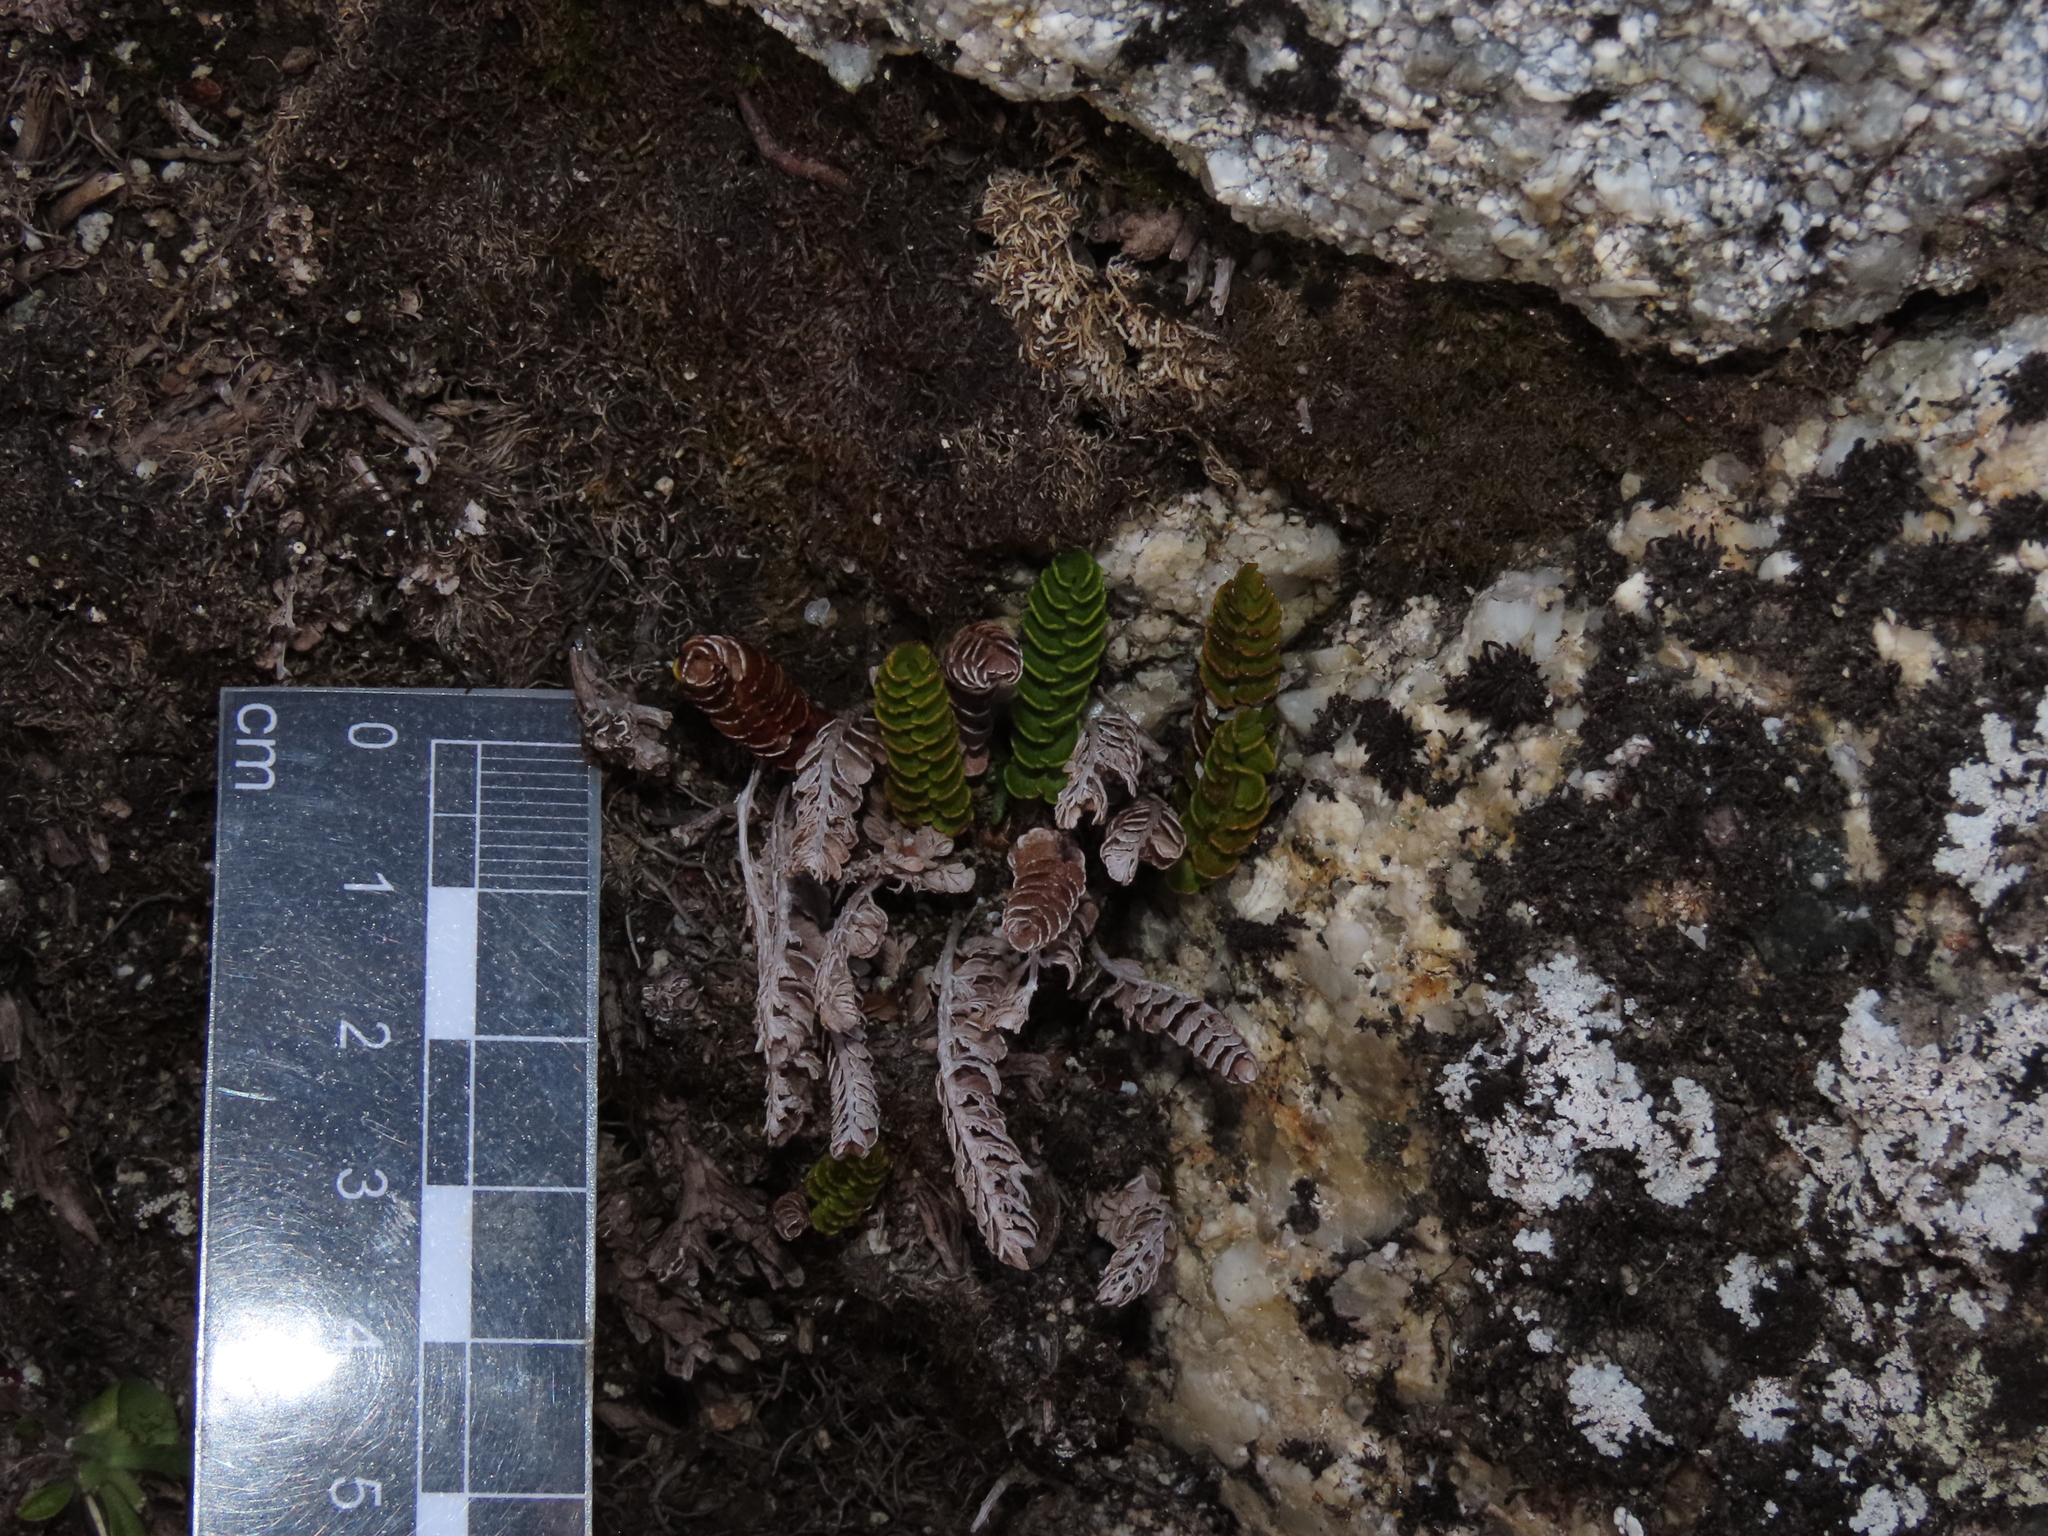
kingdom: Plantae
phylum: Tracheophyta
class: Polypodiopsida
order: Polypodiales
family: Dryopteridaceae
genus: Polystichum
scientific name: Polystichum andinum
